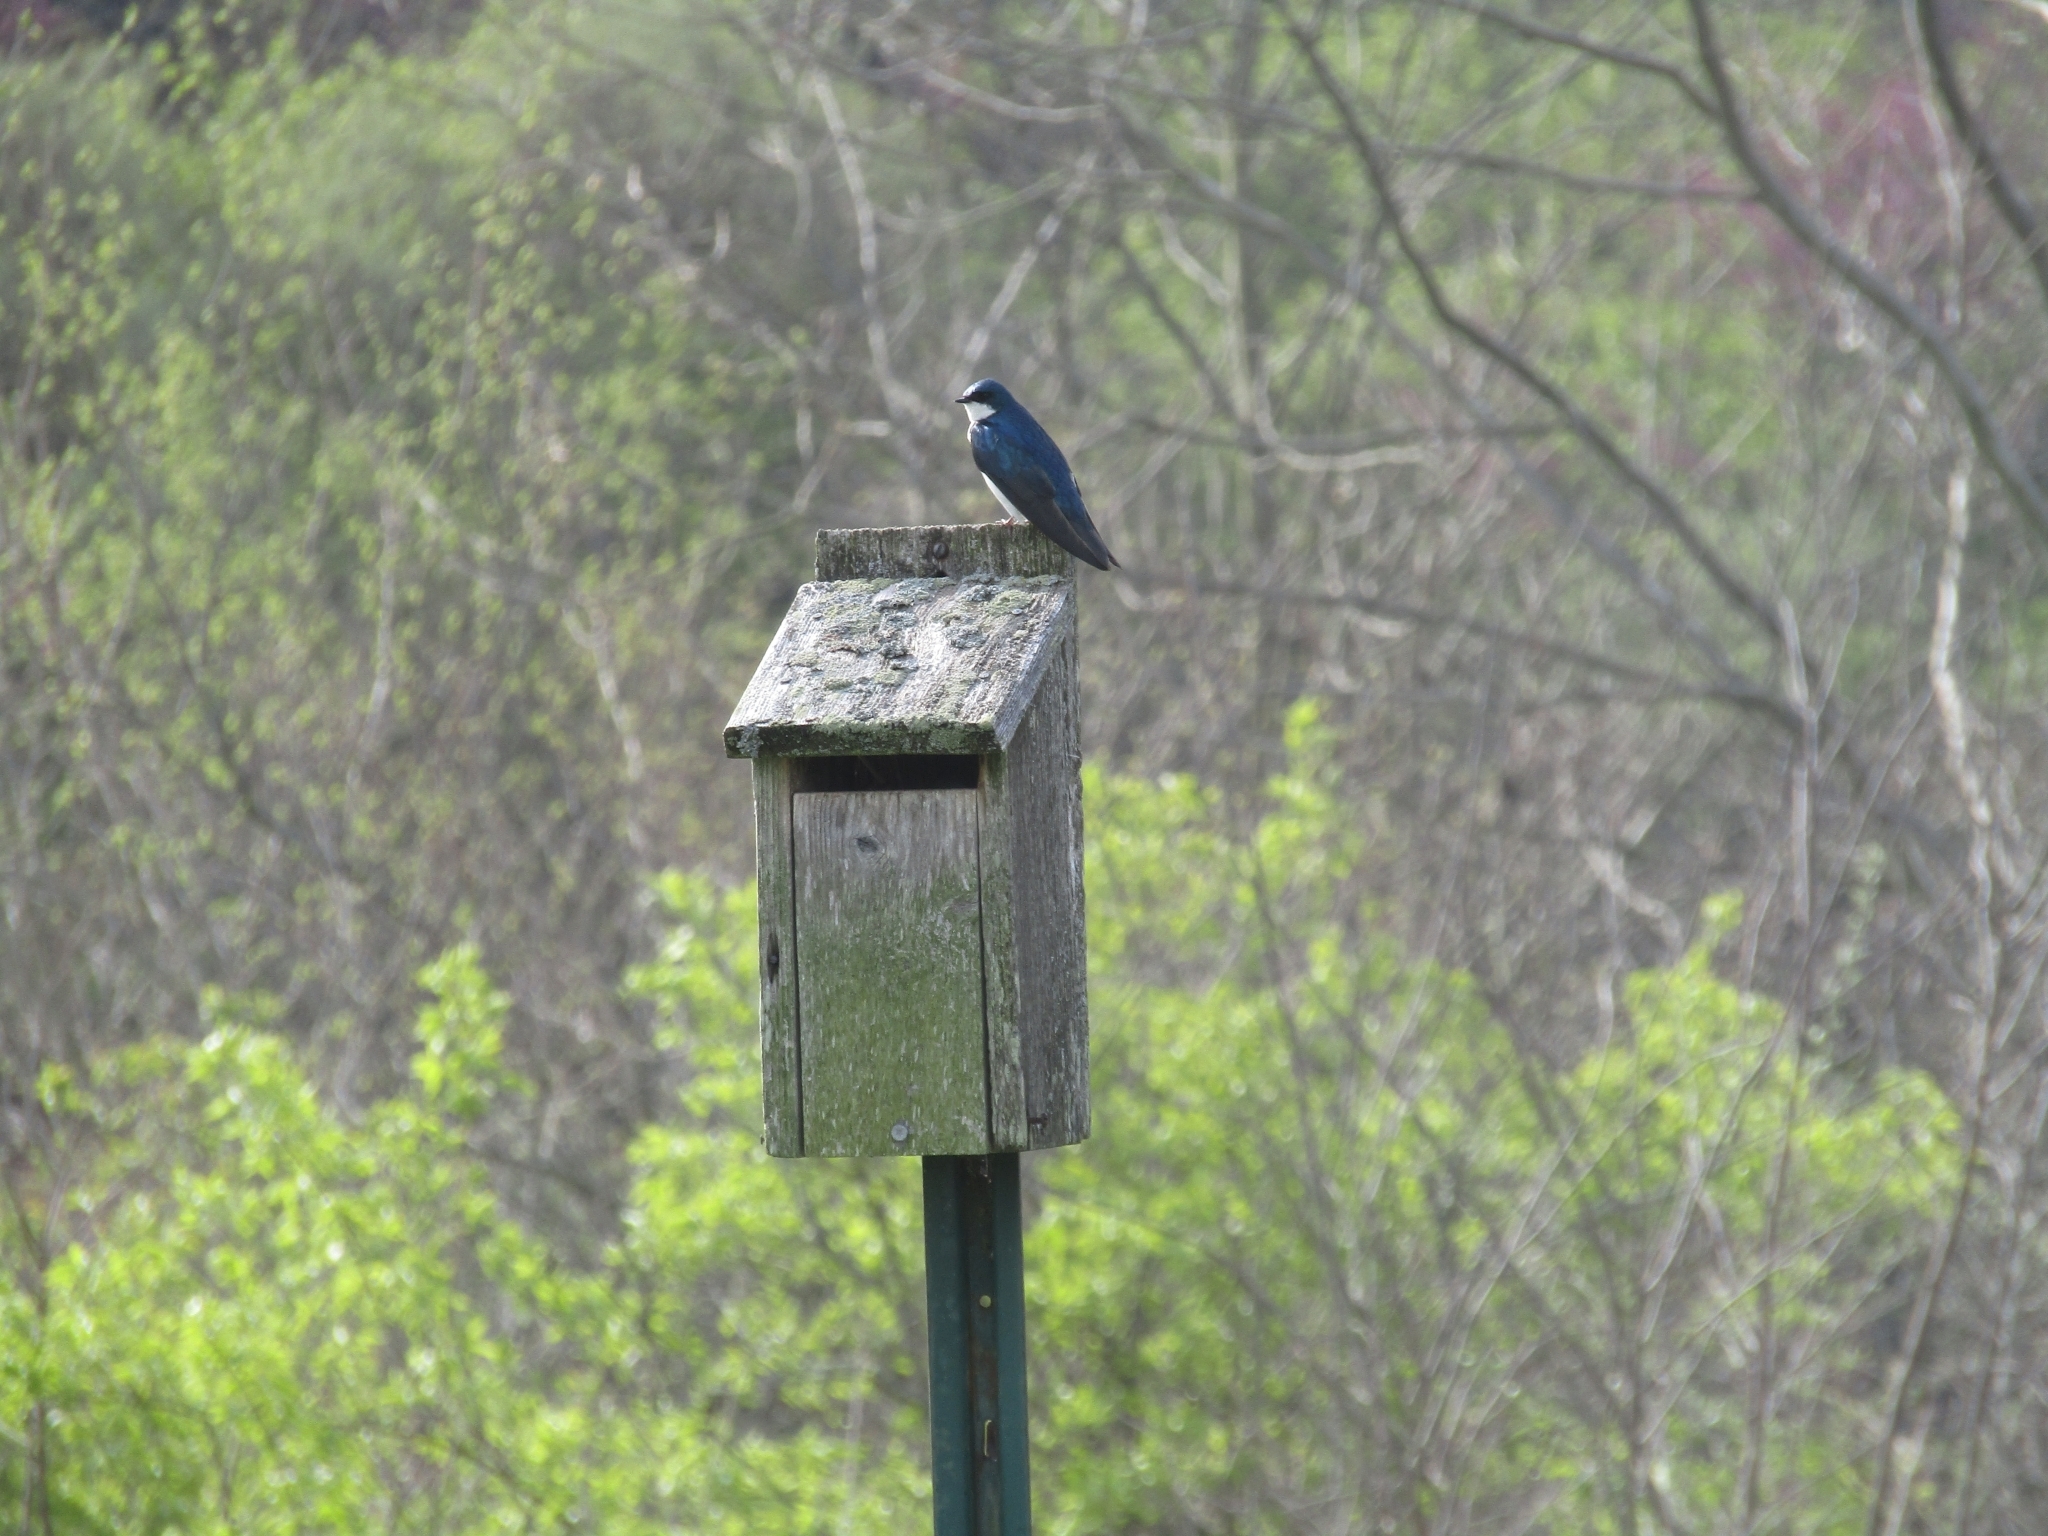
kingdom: Animalia
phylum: Chordata
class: Aves
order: Passeriformes
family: Hirundinidae
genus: Tachycineta
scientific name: Tachycineta bicolor
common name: Tree swallow
